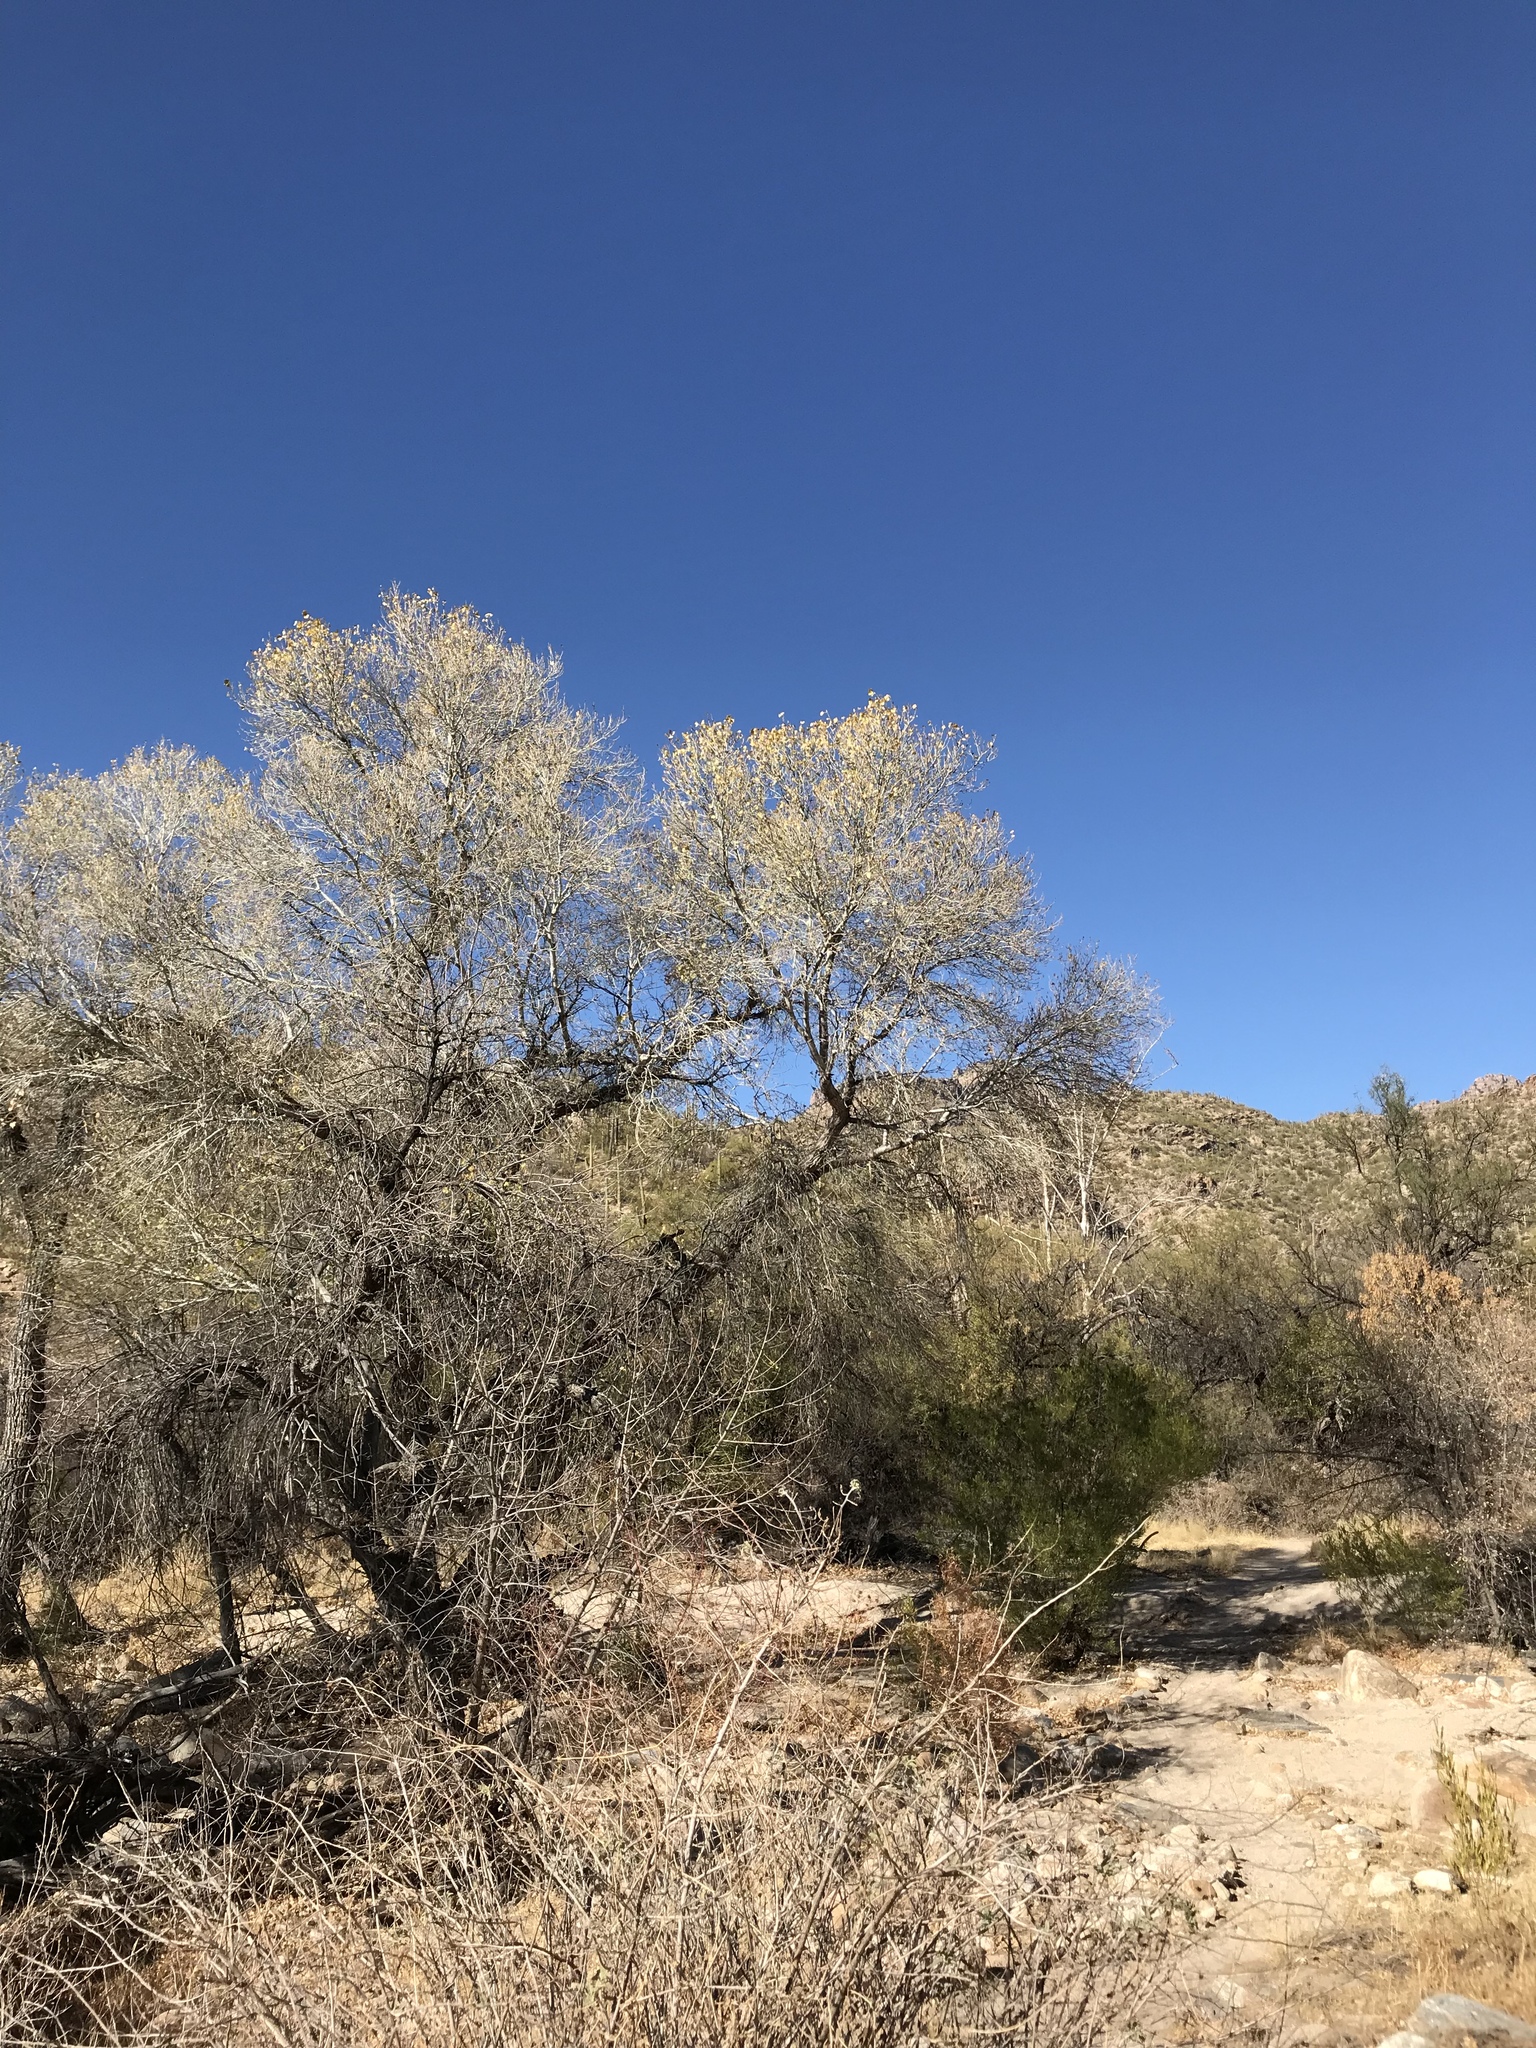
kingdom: Plantae
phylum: Tracheophyta
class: Magnoliopsida
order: Malpighiales
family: Salicaceae
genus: Populus
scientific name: Populus fremontii
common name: Fremont's cottonwood
